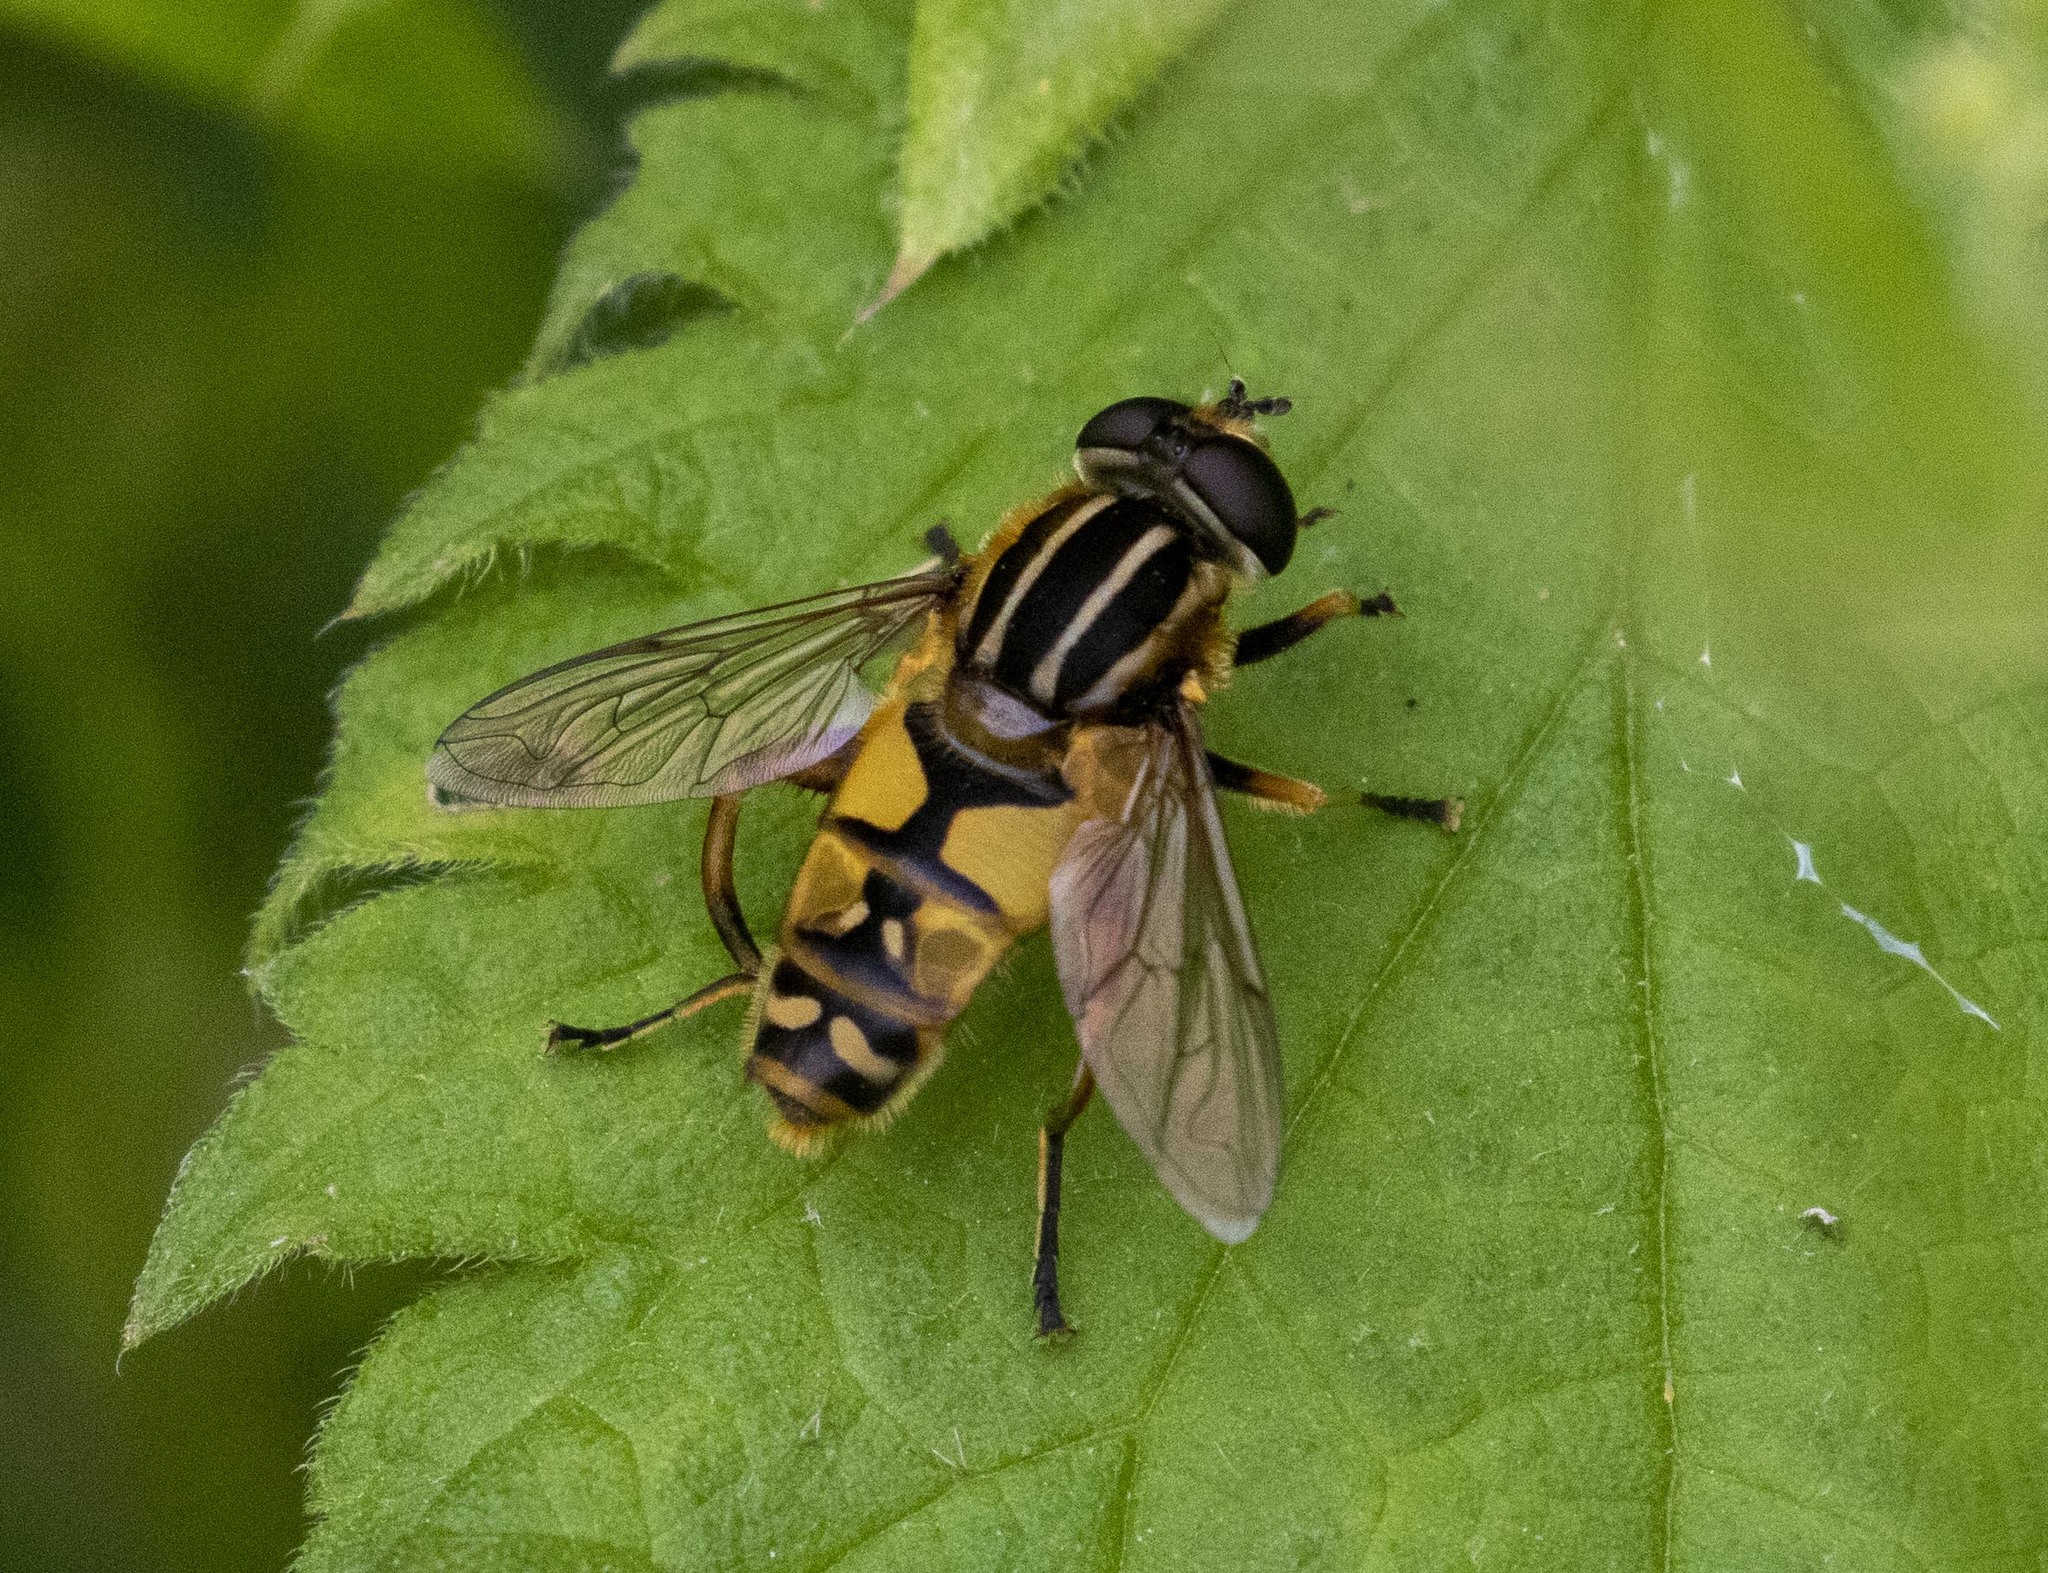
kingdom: Animalia
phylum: Arthropoda
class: Insecta
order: Diptera
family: Syrphidae
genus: Helophilus
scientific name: Helophilus pendulus
